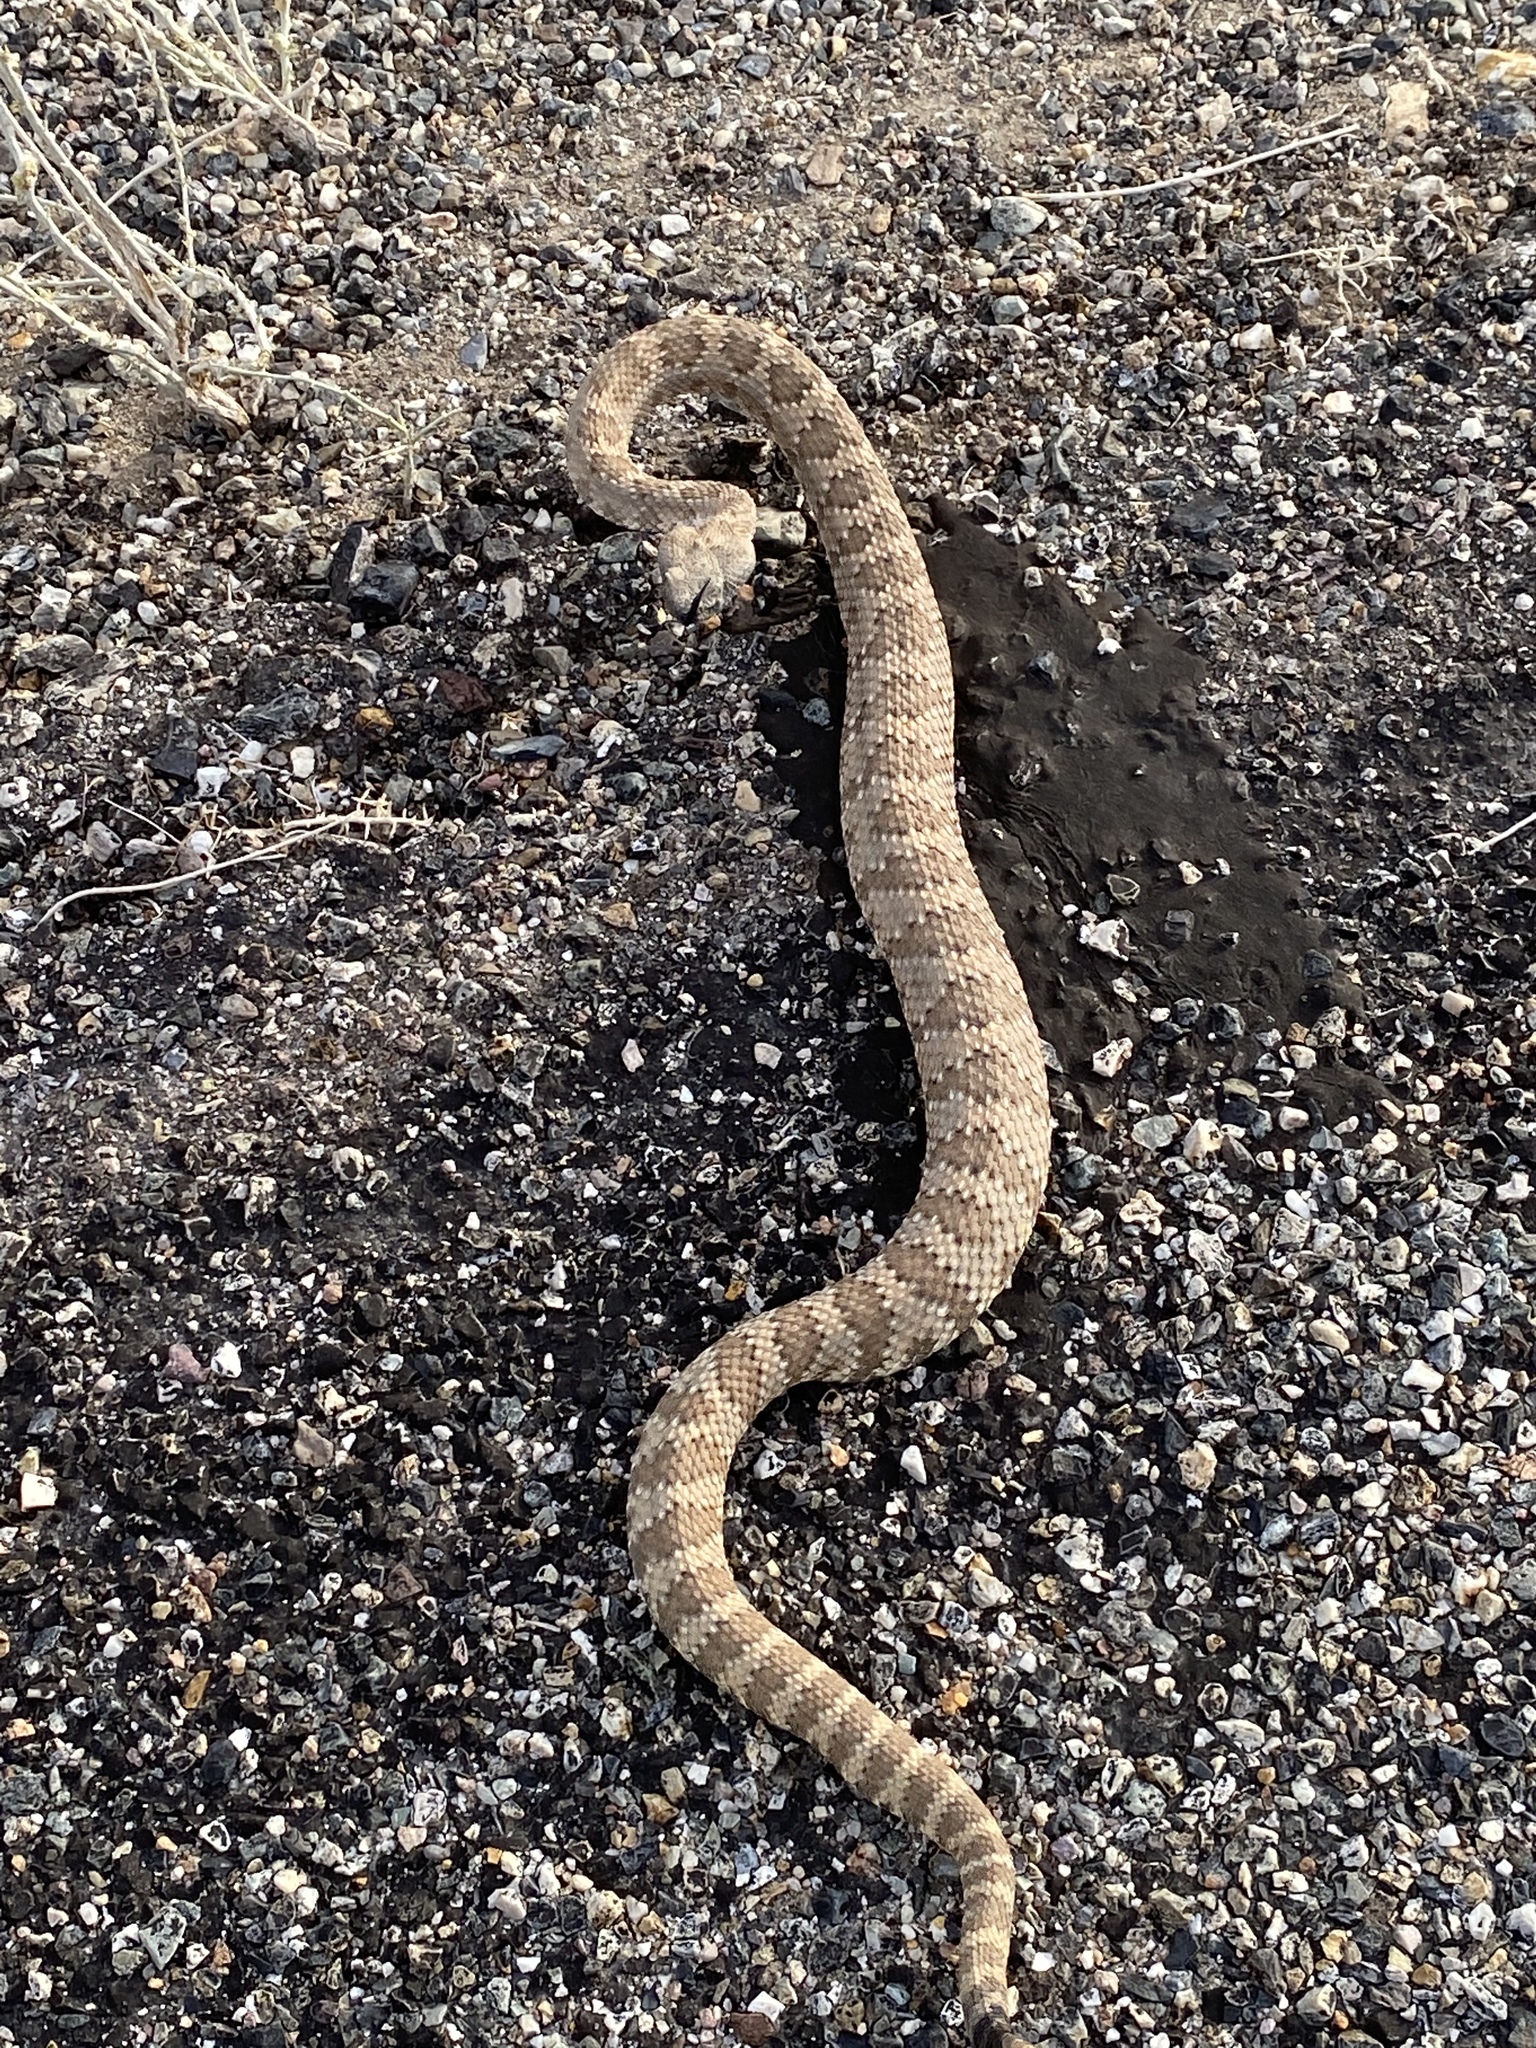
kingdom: Animalia
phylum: Chordata
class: Squamata
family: Viperidae
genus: Crotalus
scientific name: Crotalus stephensi
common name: Panamint rattlesnake
